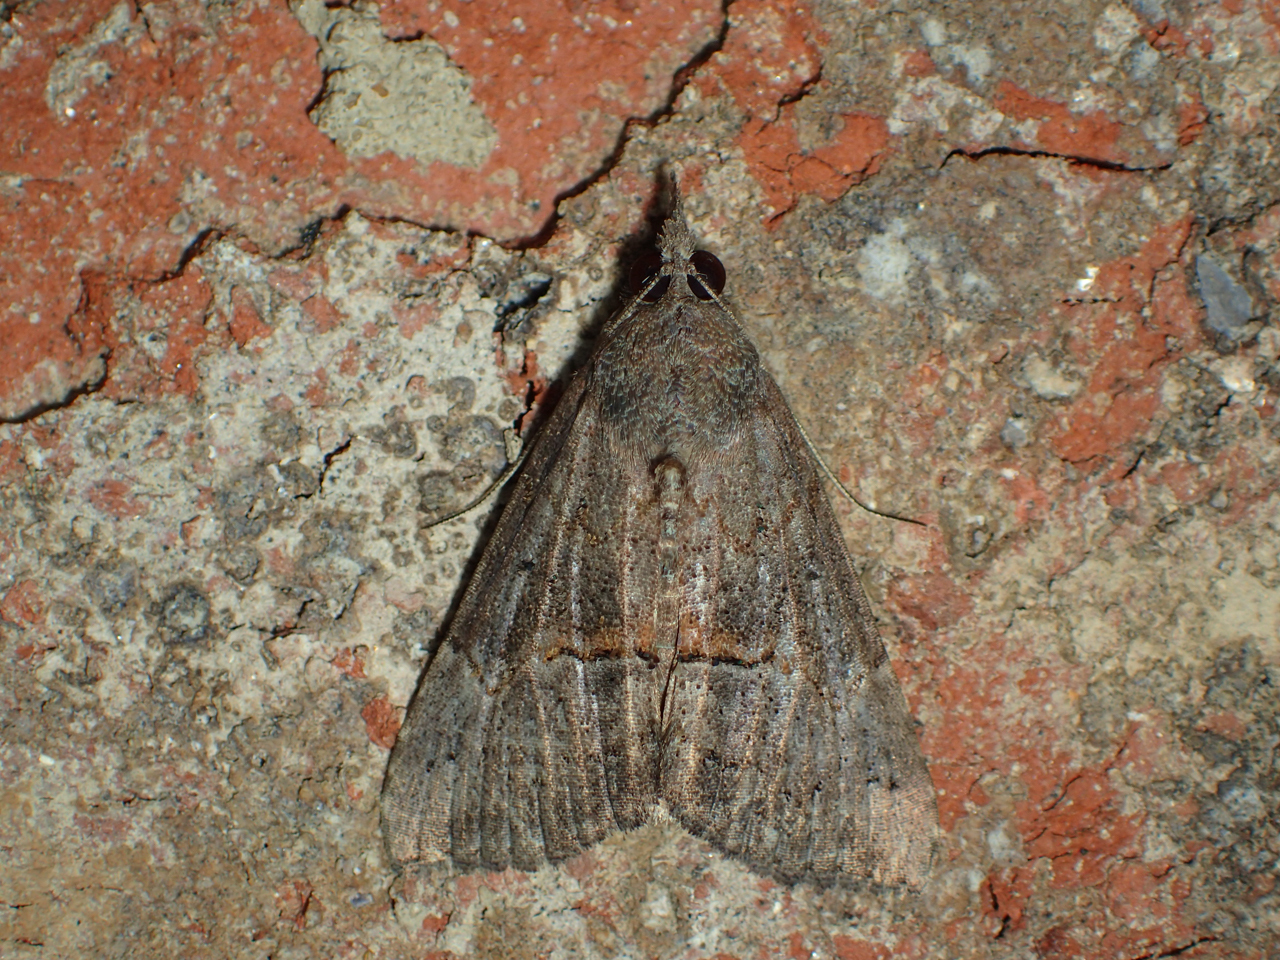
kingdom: Animalia
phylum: Arthropoda
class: Insecta
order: Lepidoptera
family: Erebidae
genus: Hypena
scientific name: Hypena scabra
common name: Green cloverworm
